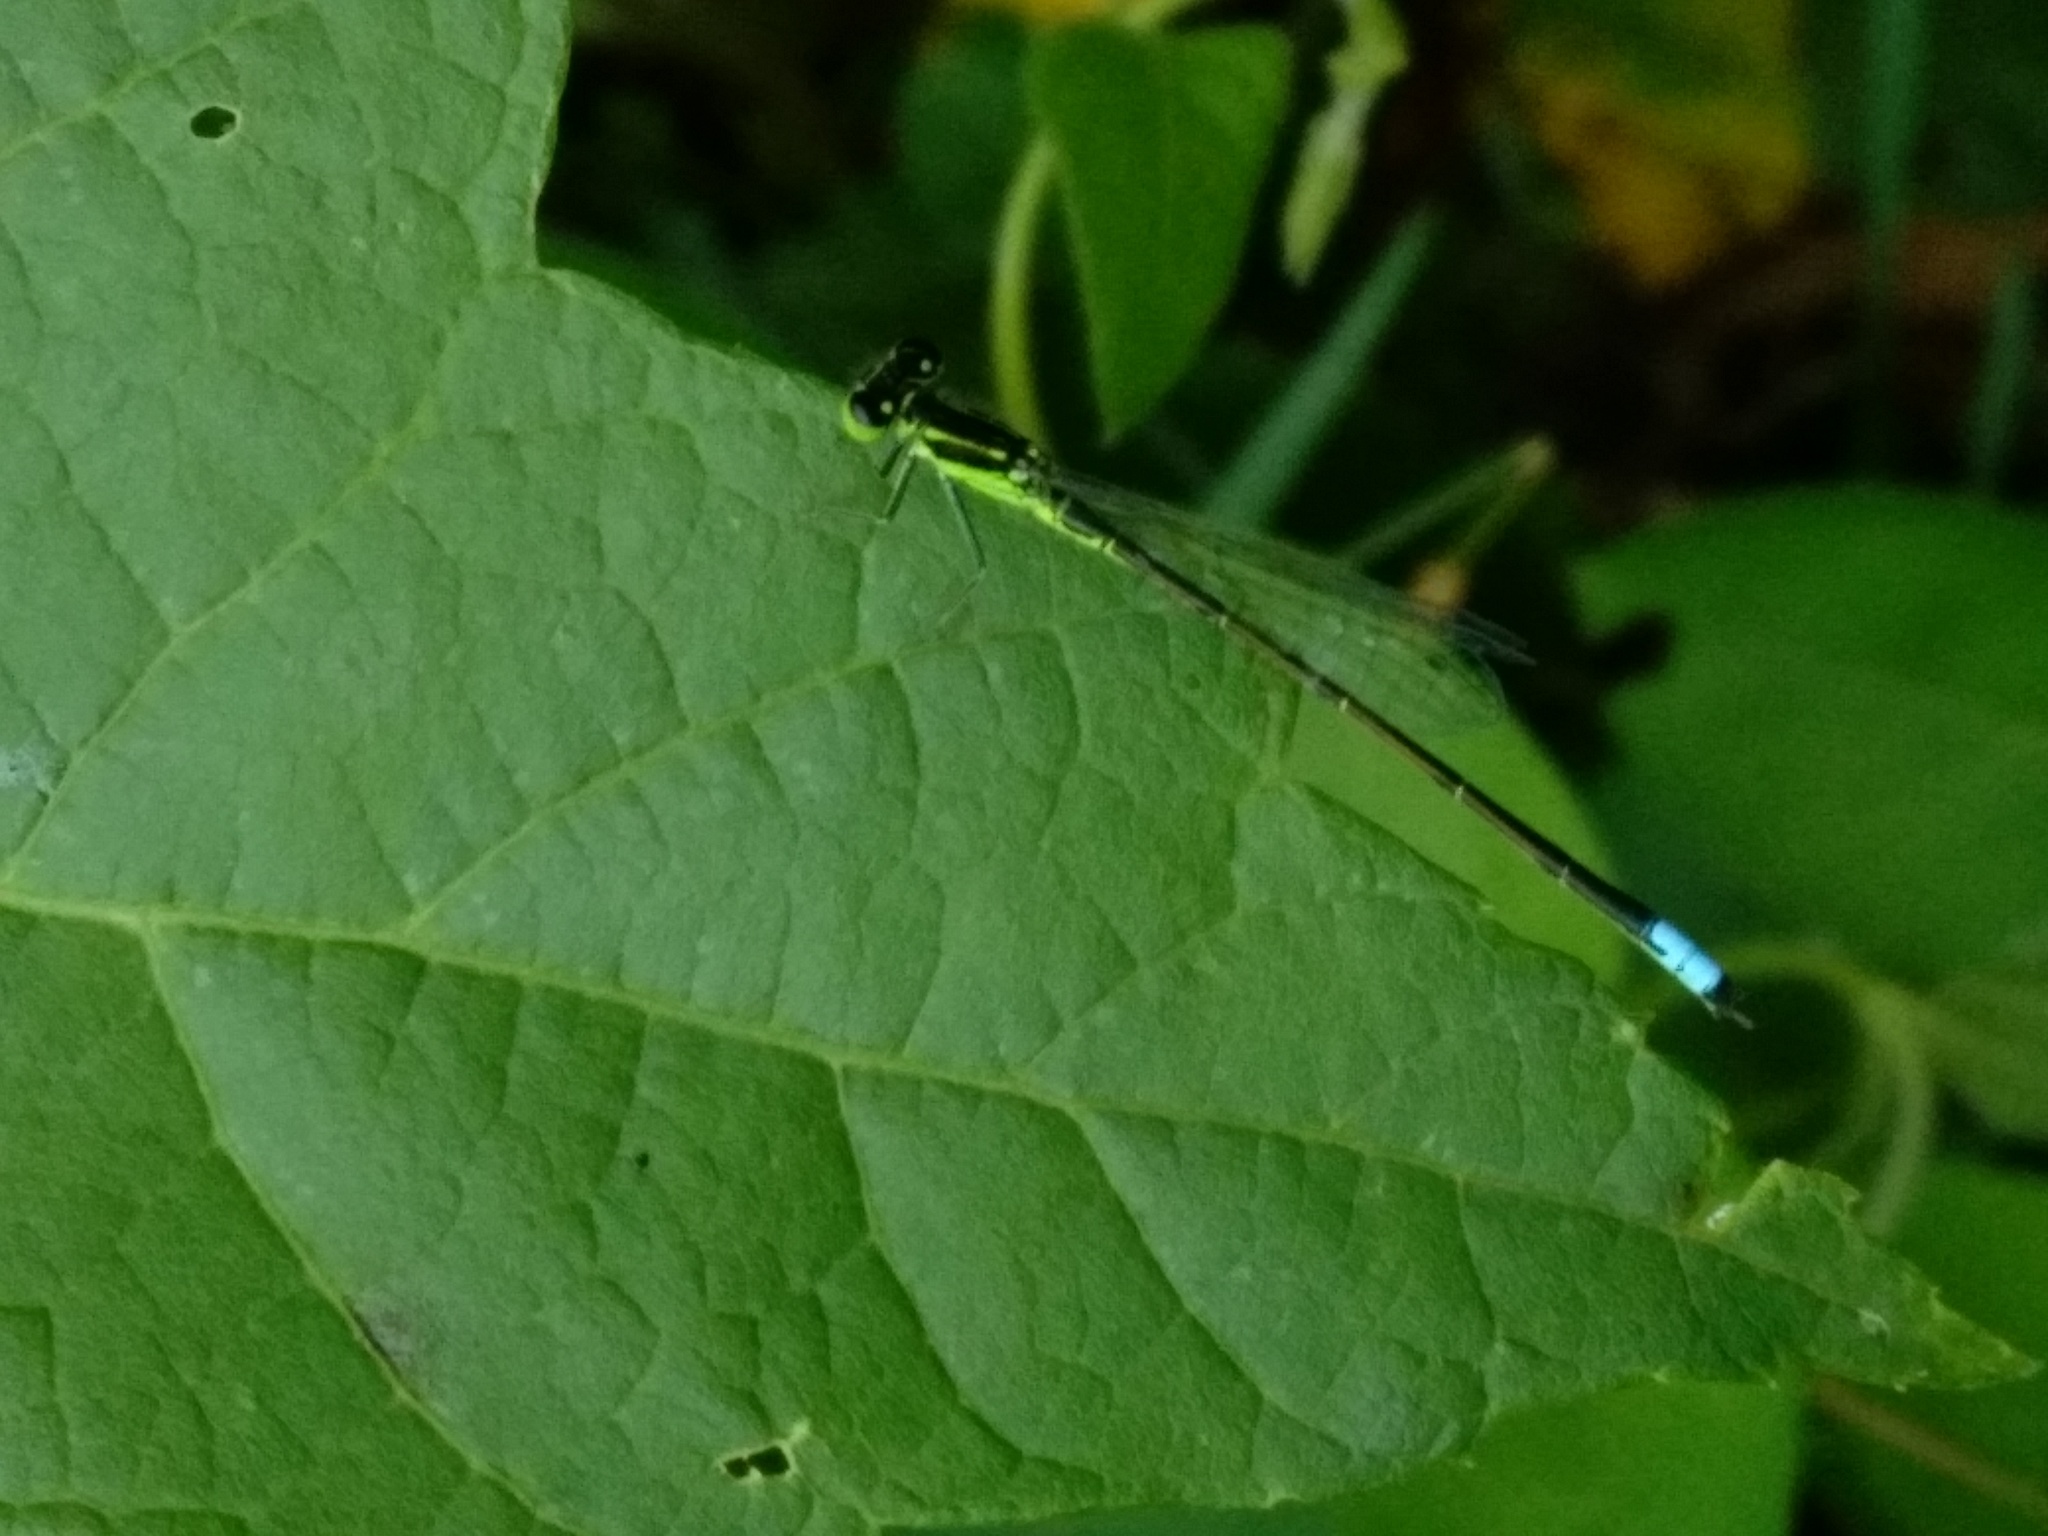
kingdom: Animalia
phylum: Arthropoda
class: Insecta
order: Odonata
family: Coenagrionidae
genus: Ischnura
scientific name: Ischnura verticalis
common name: Eastern forktail
